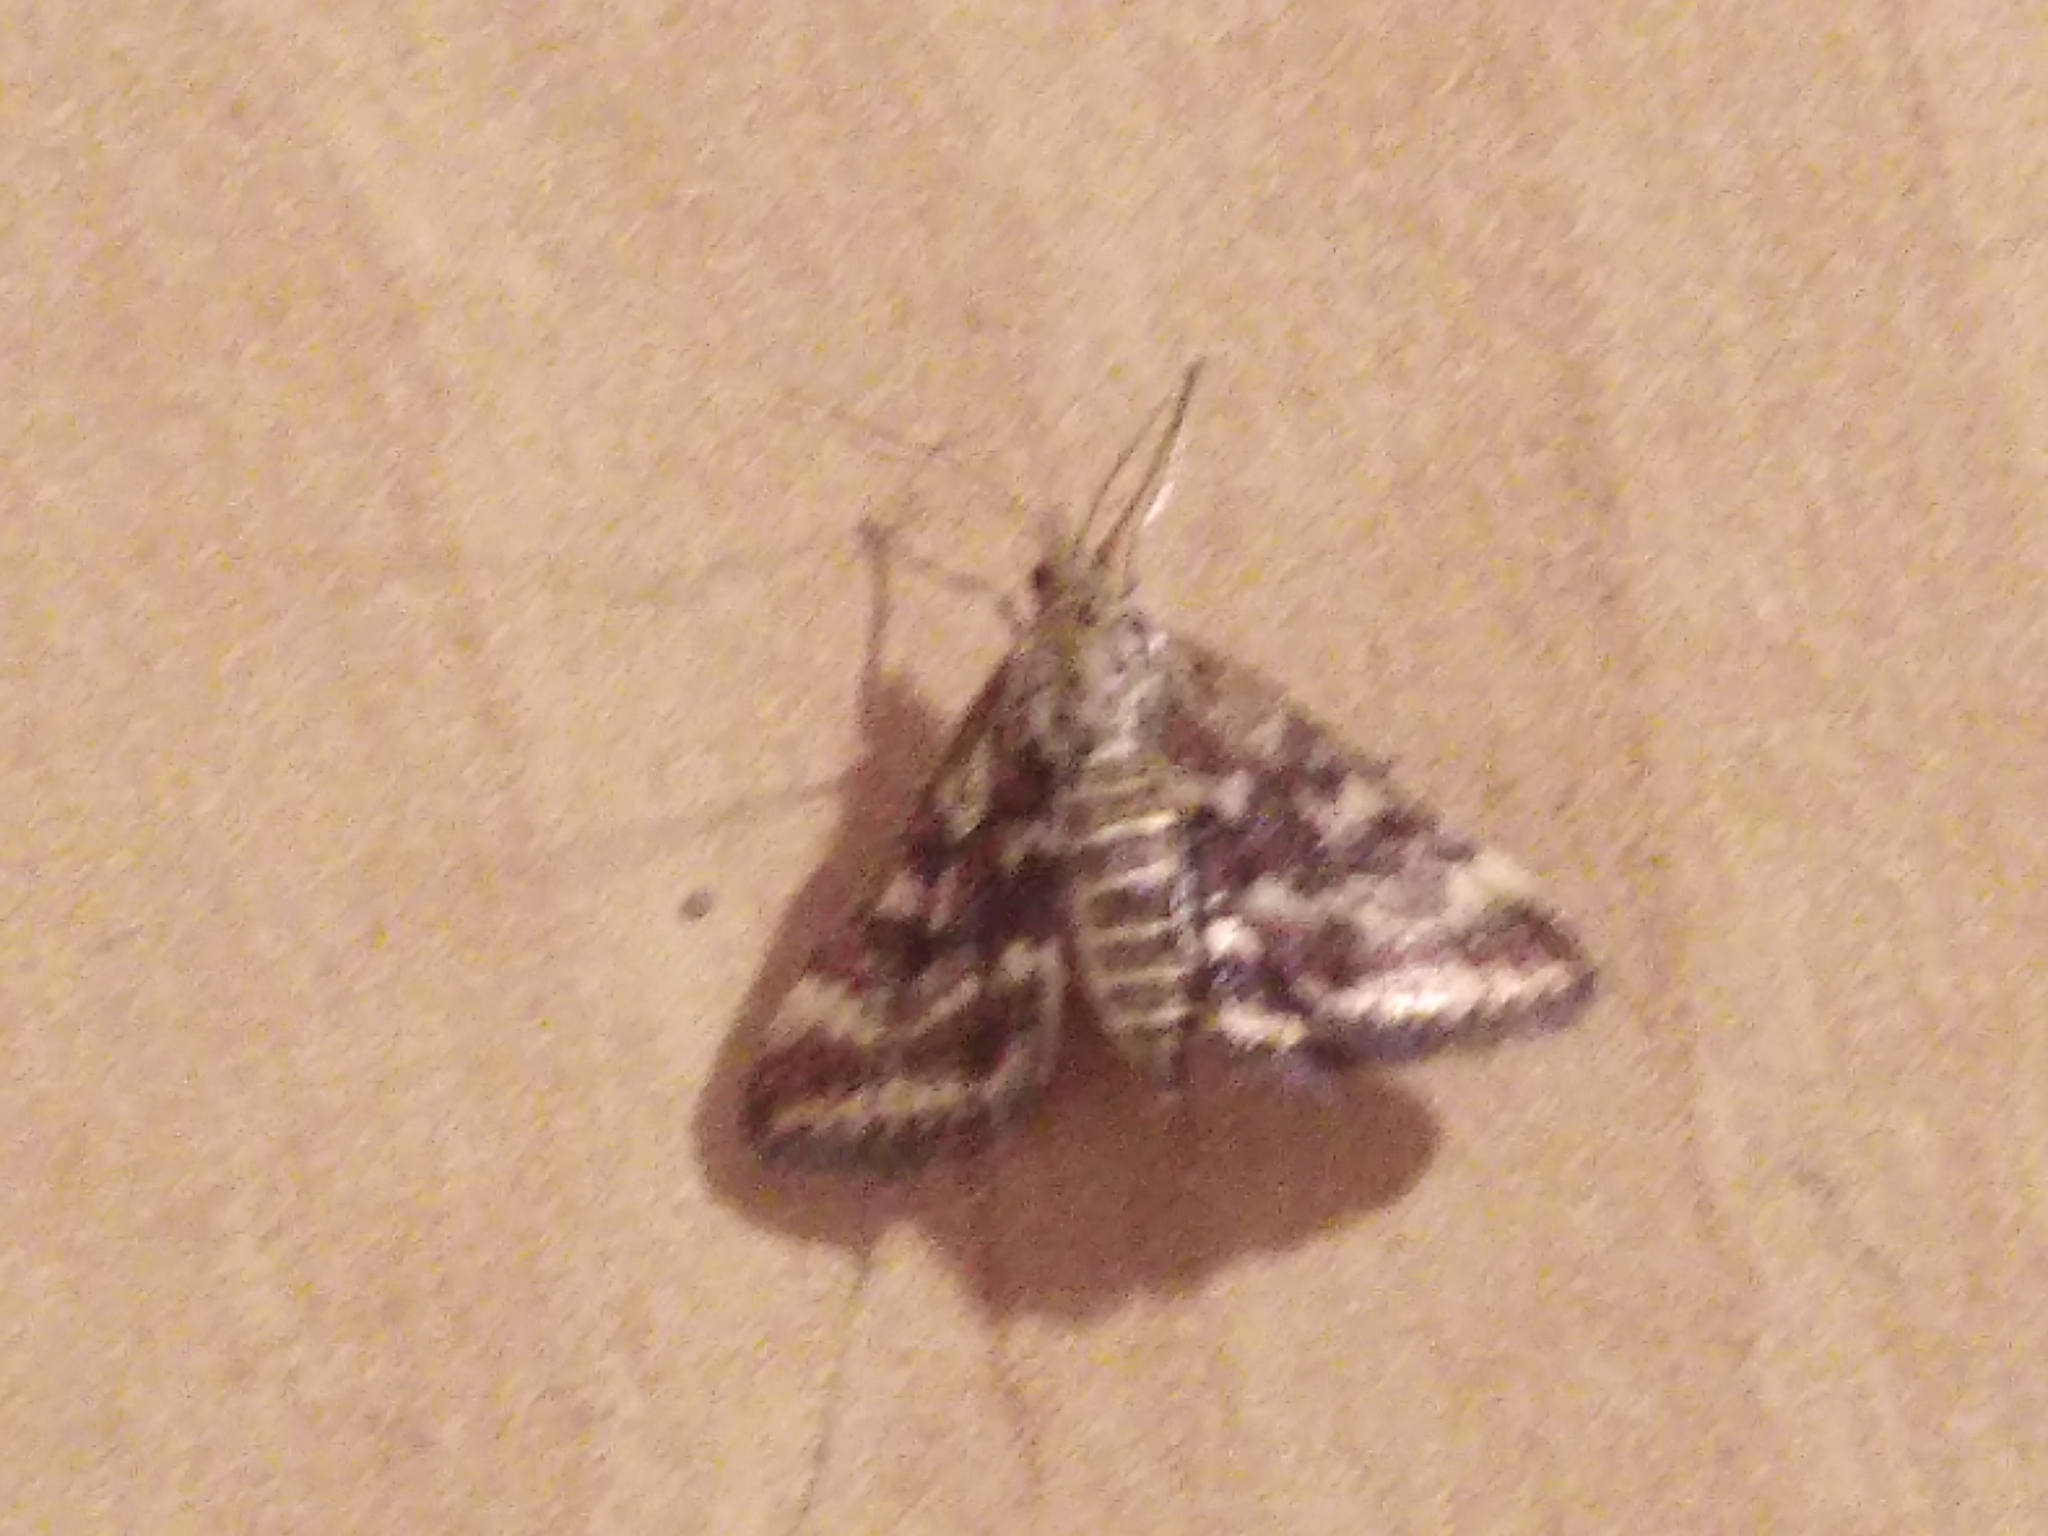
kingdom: Animalia
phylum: Arthropoda
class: Insecta
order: Lepidoptera
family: Crambidae
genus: Pyrausta
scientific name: Pyrausta despicata
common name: Straw-barred pearl
